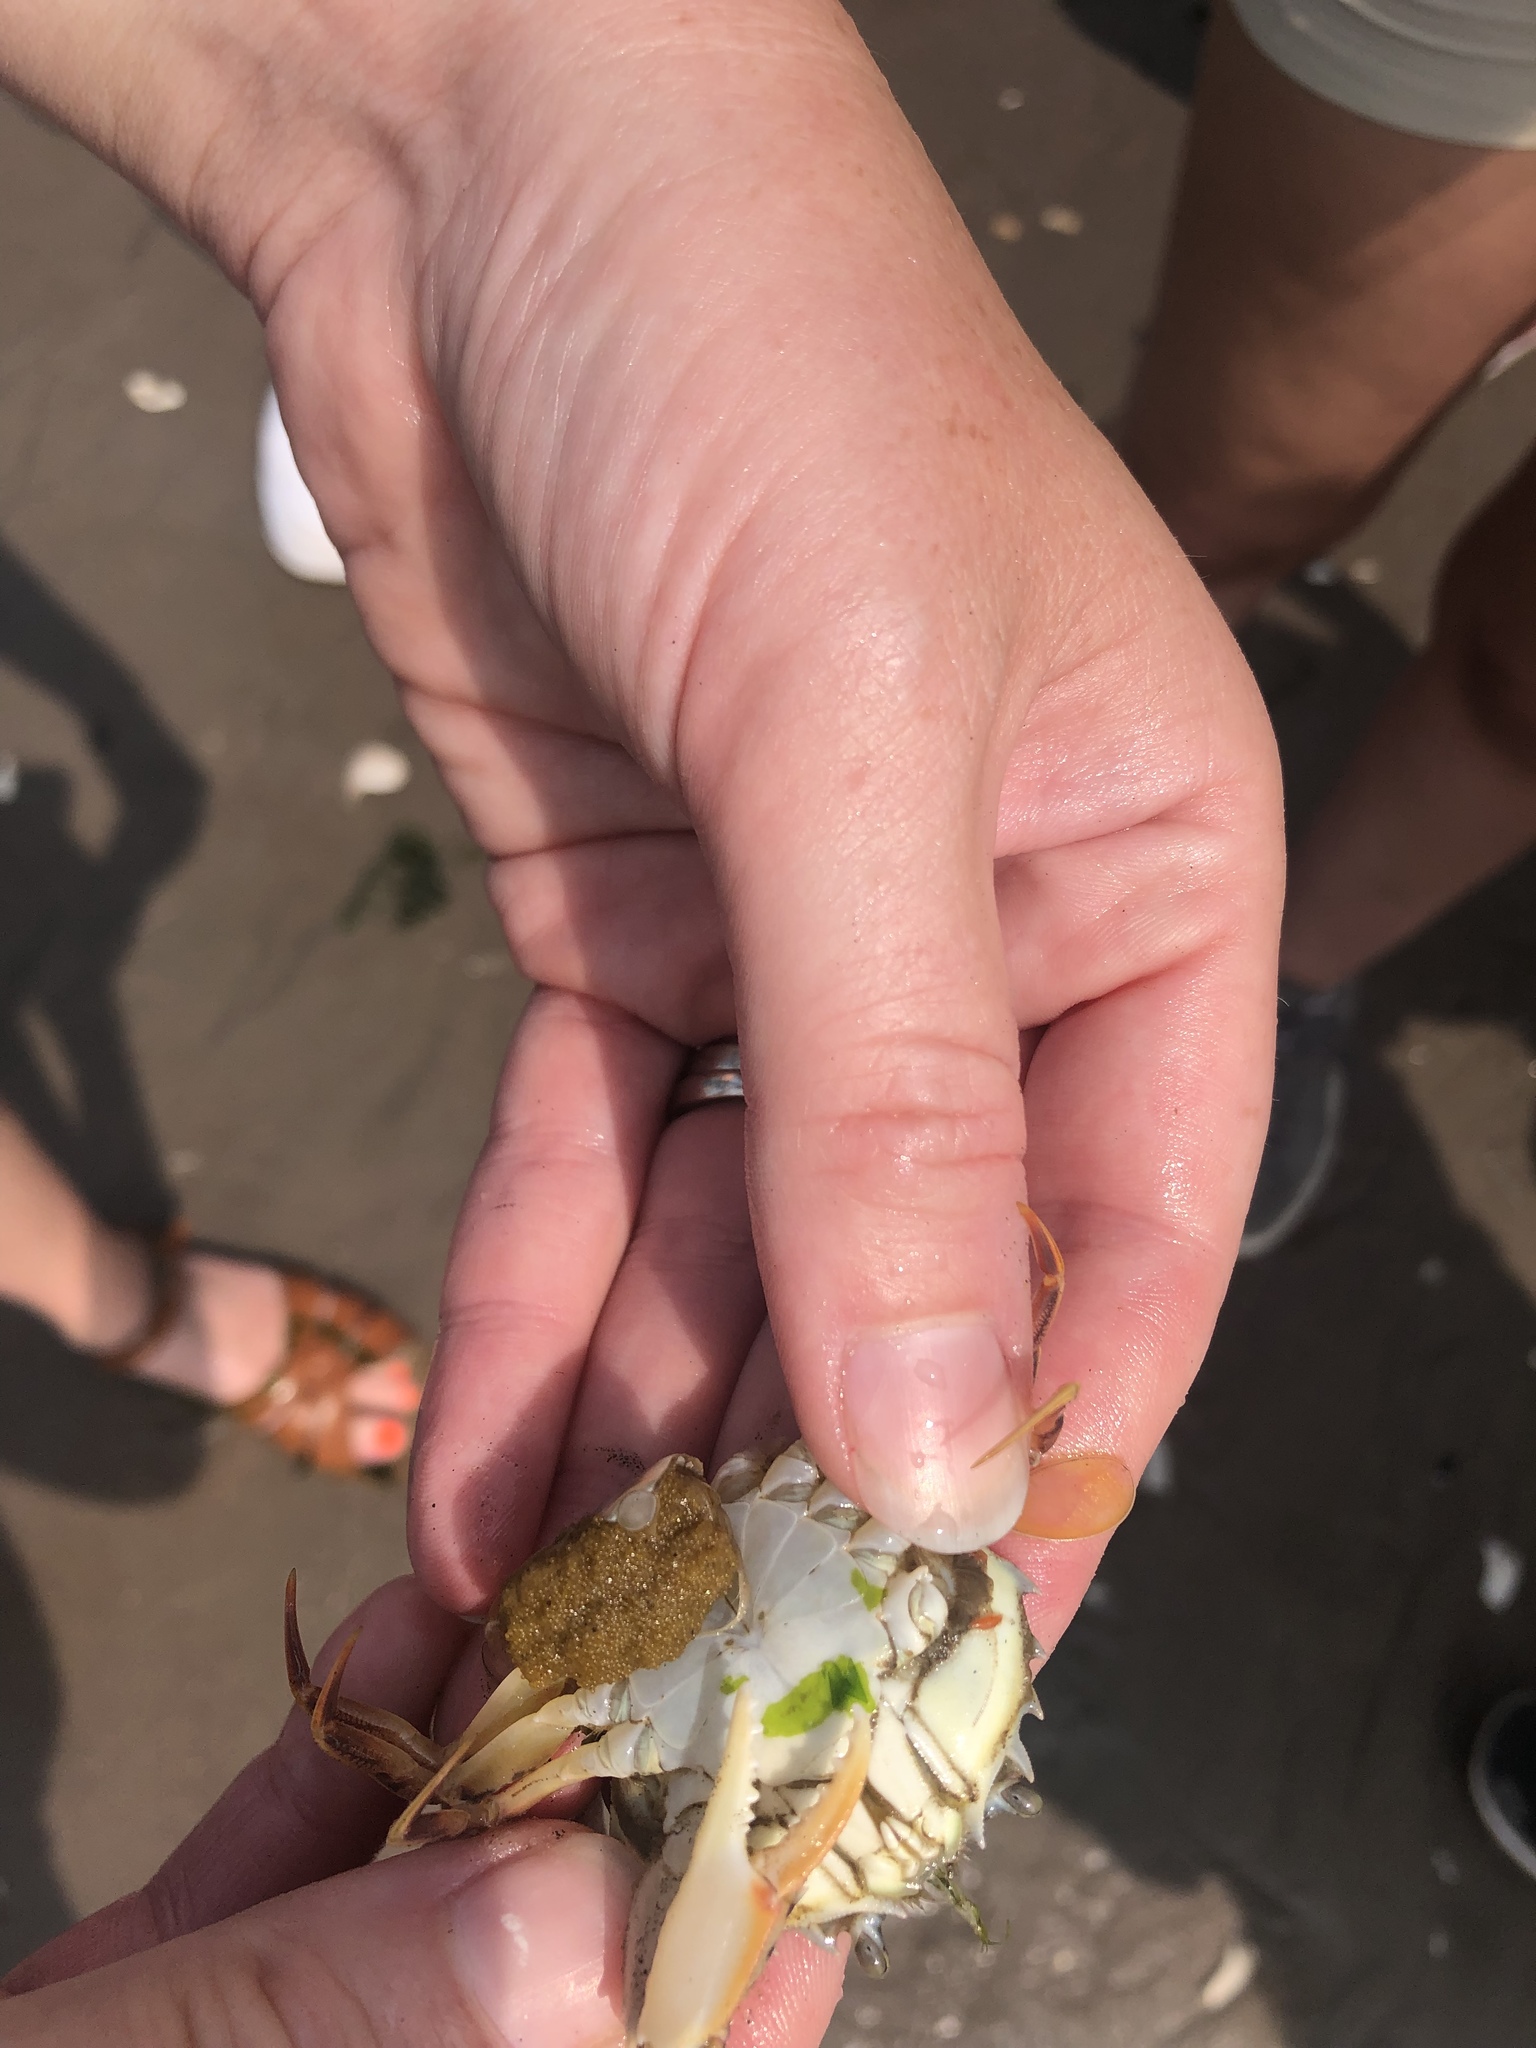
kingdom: Animalia
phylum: Arthropoda
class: Malacostraca
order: Decapoda
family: Ovalipidae
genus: Ovalipes
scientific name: Ovalipes ocellatus
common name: Lady crab
